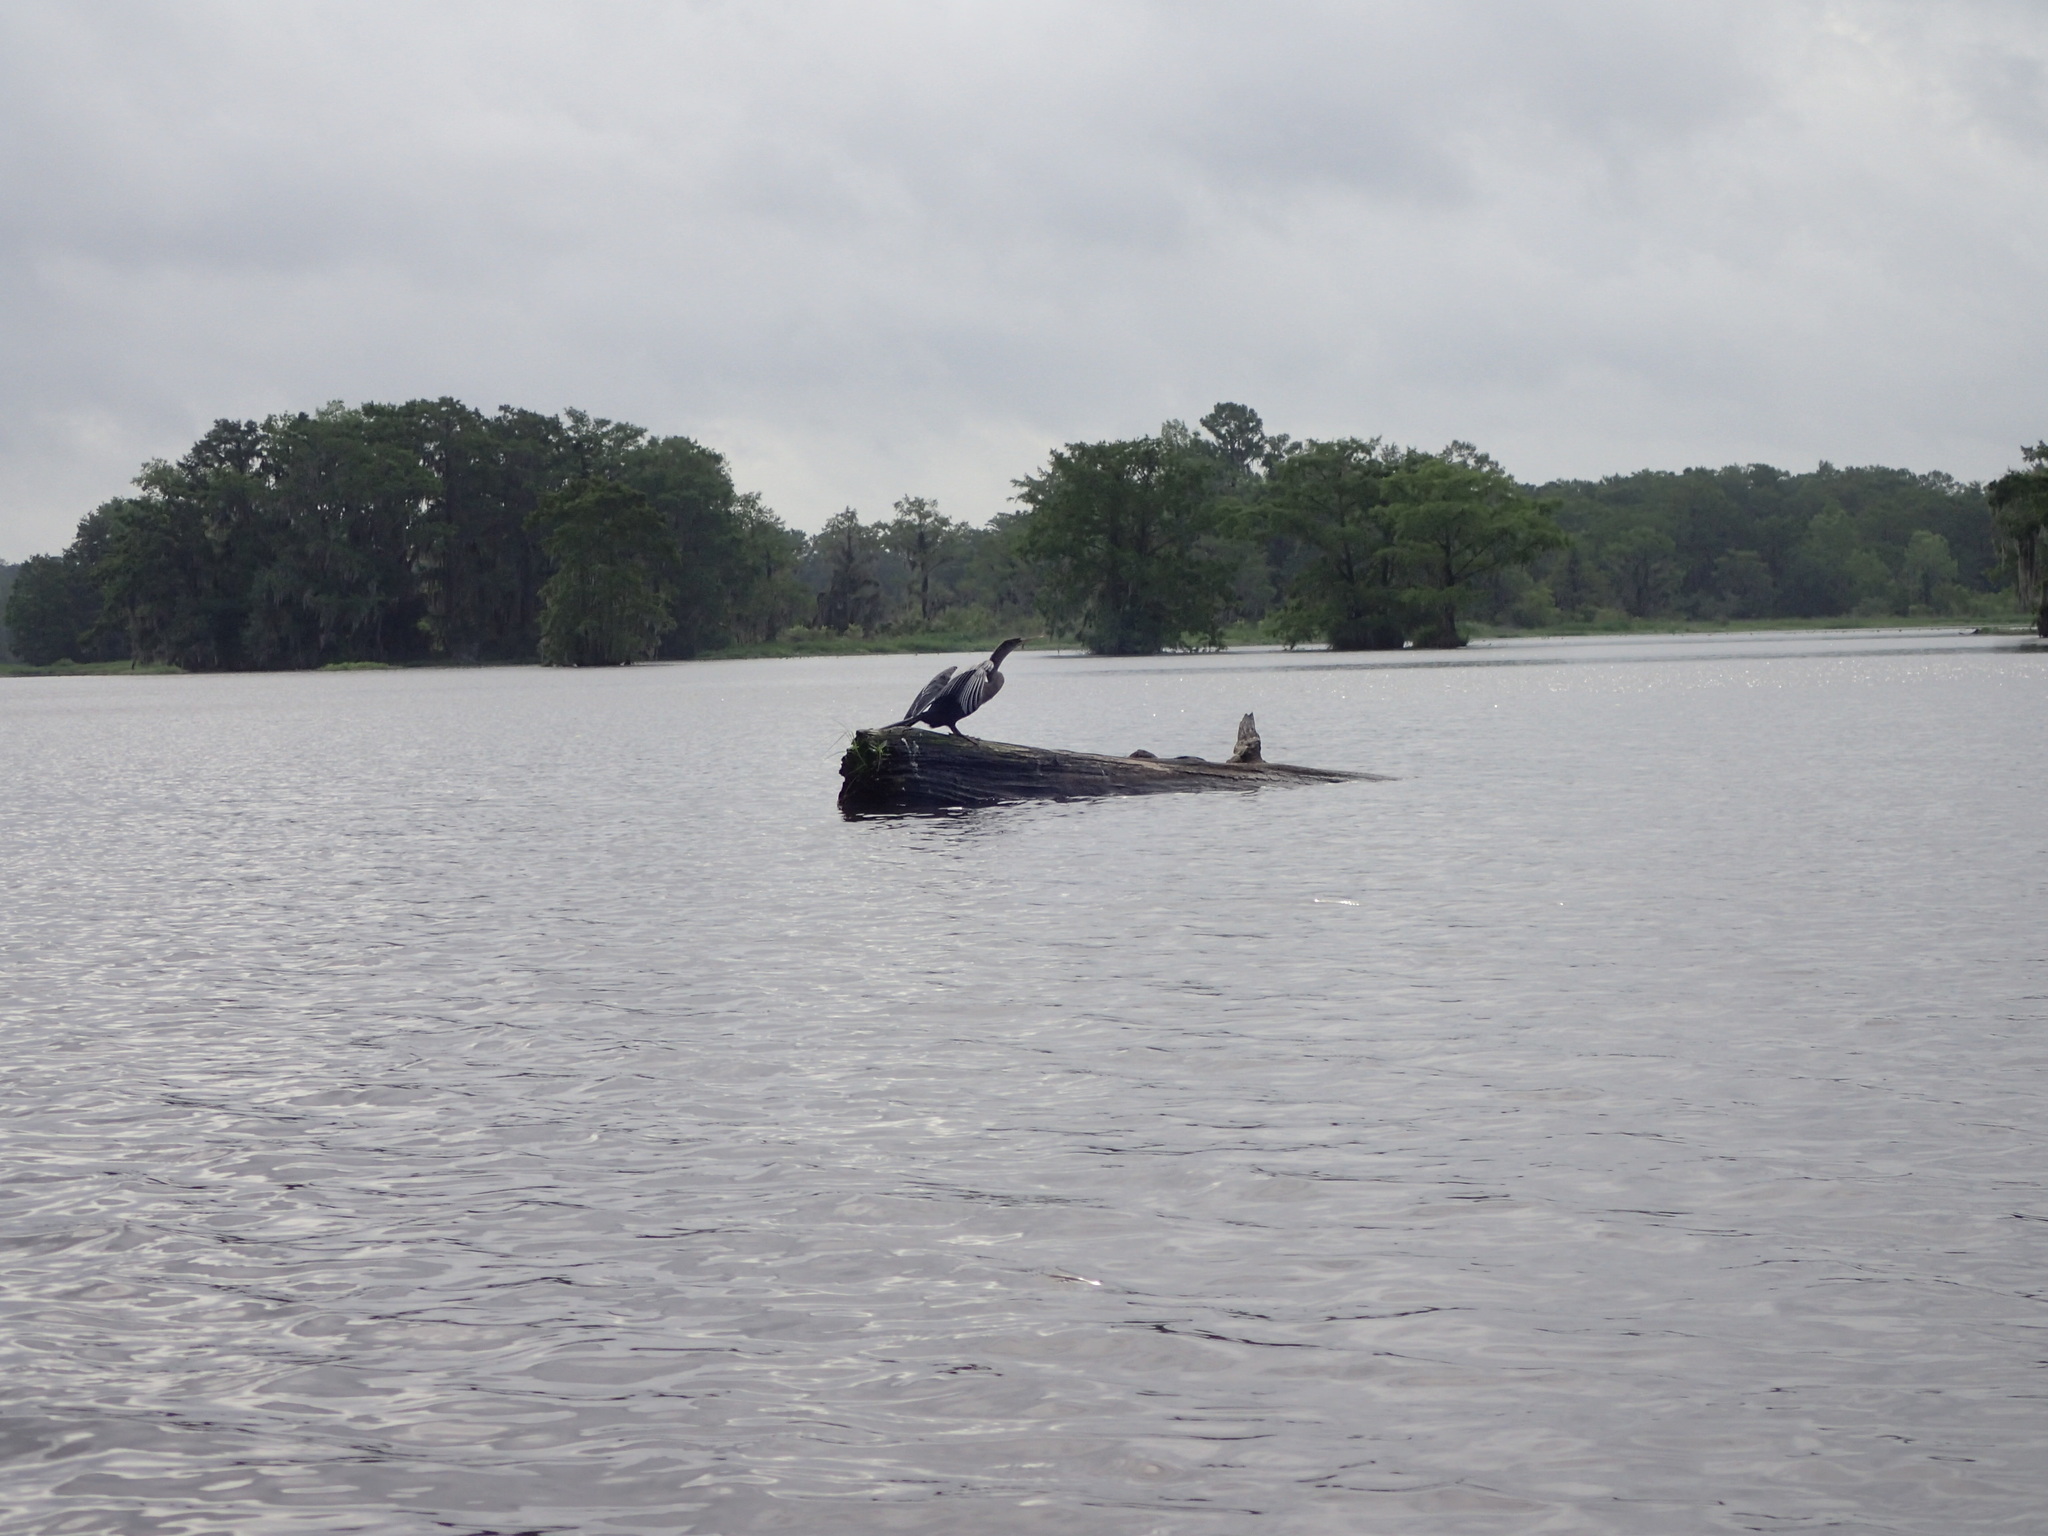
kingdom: Animalia
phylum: Chordata
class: Aves
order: Suliformes
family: Anhingidae
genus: Anhinga
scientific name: Anhinga anhinga
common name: Anhinga
